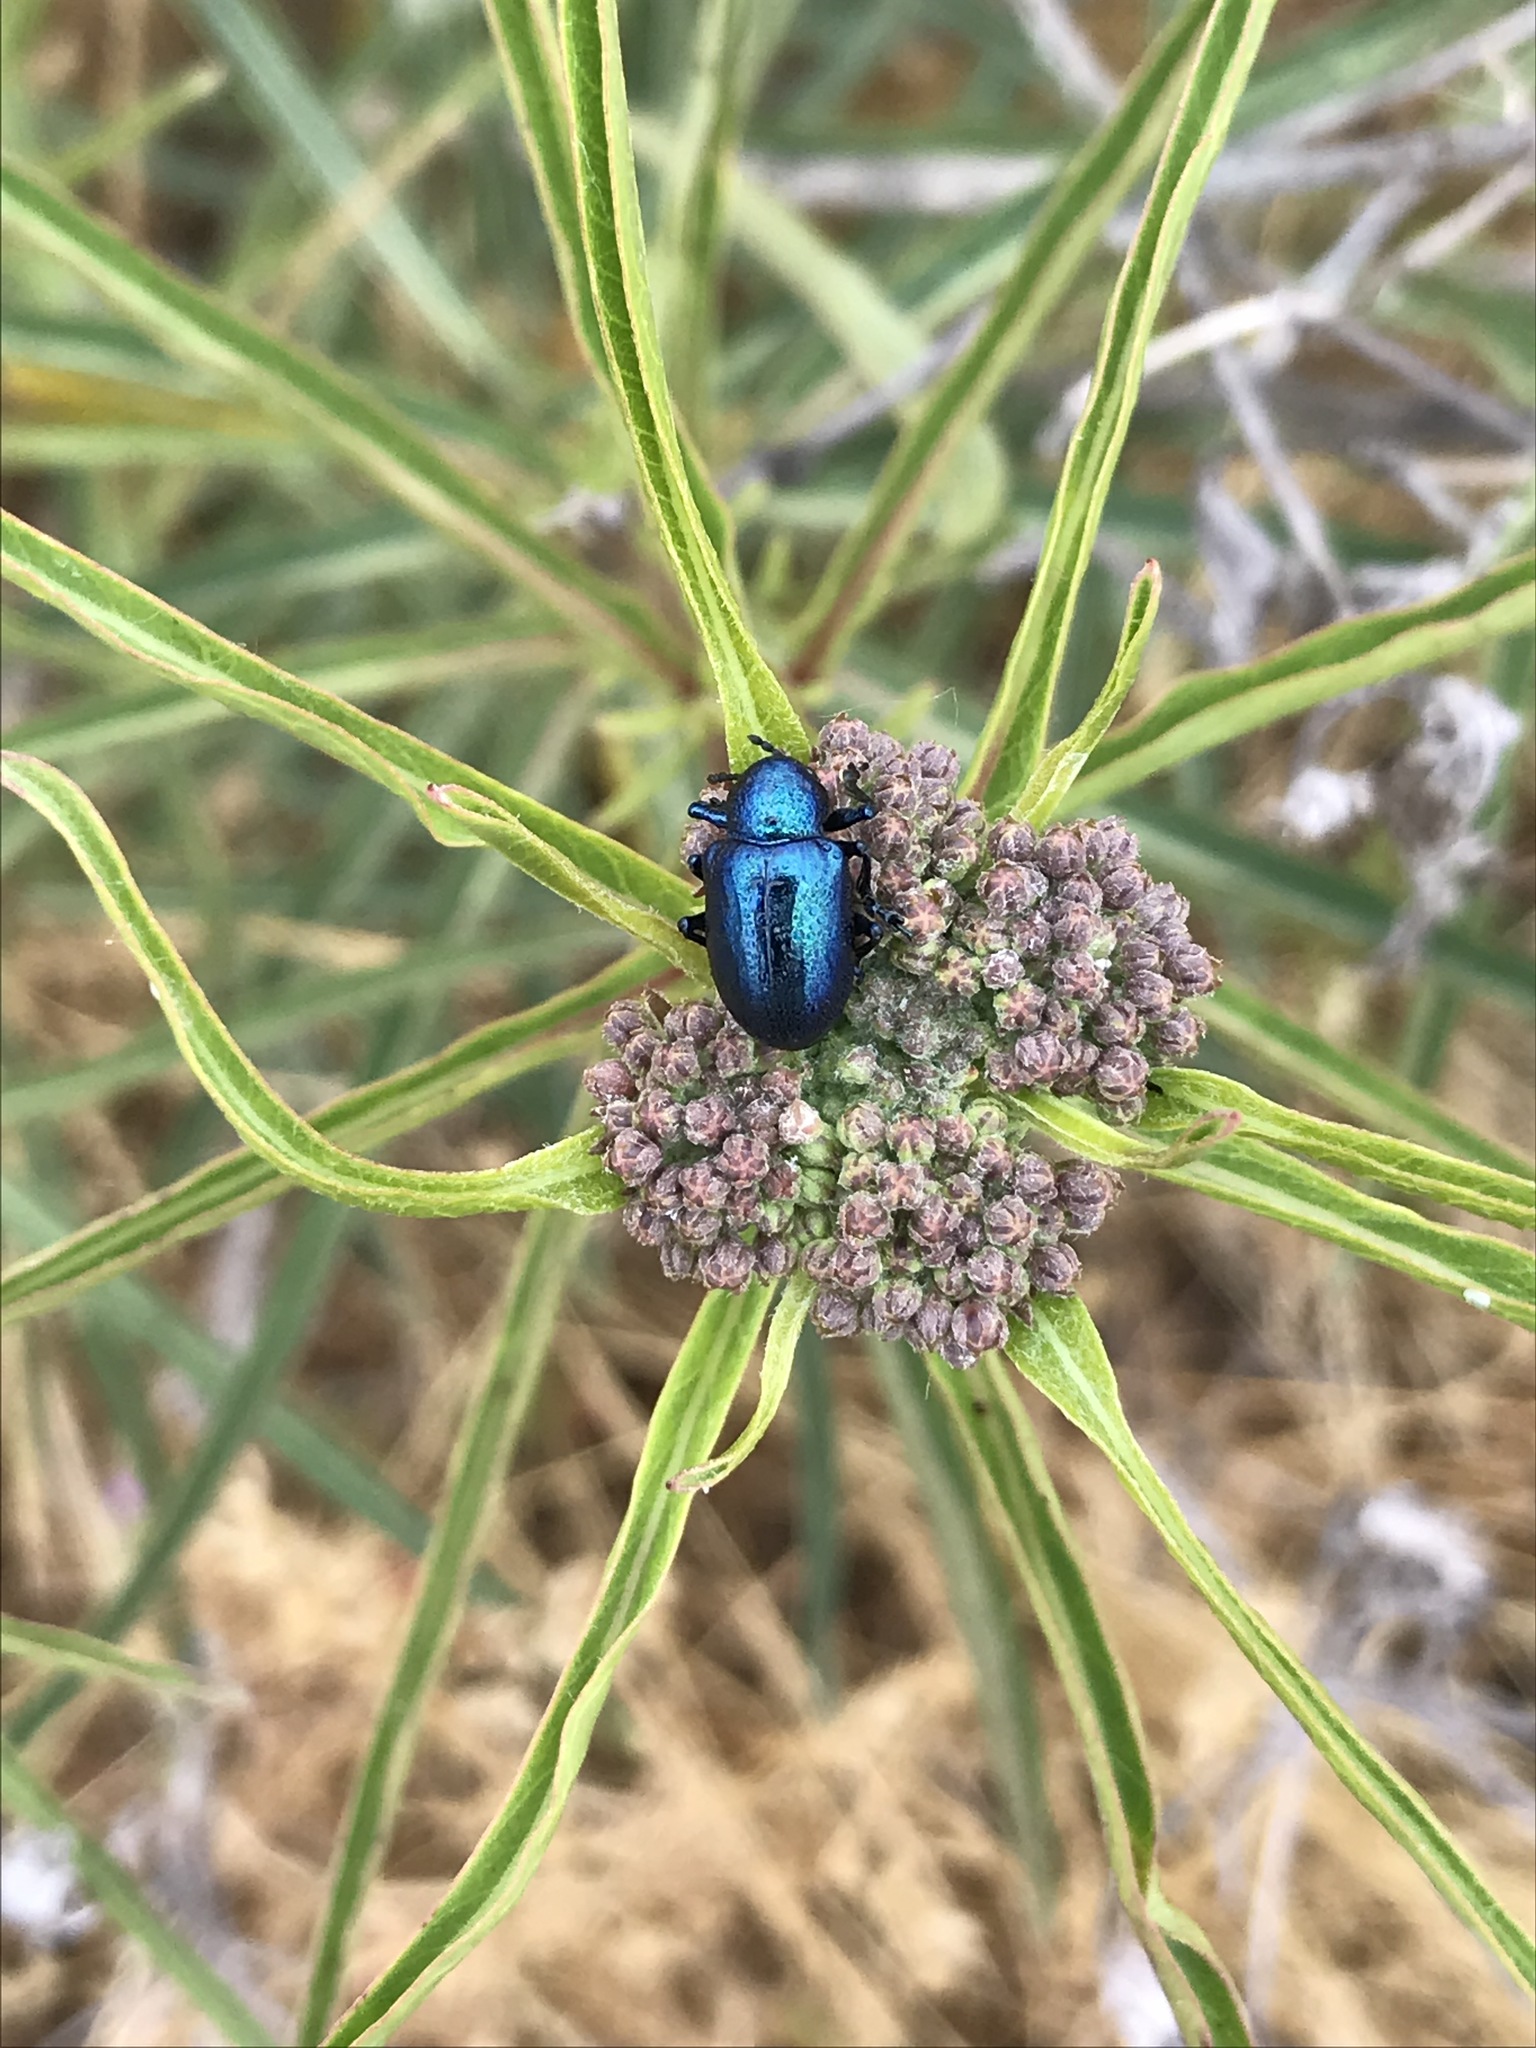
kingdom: Animalia
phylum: Arthropoda
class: Insecta
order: Coleoptera
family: Chrysomelidae
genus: Chrysochus
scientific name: Chrysochus cobaltinus
